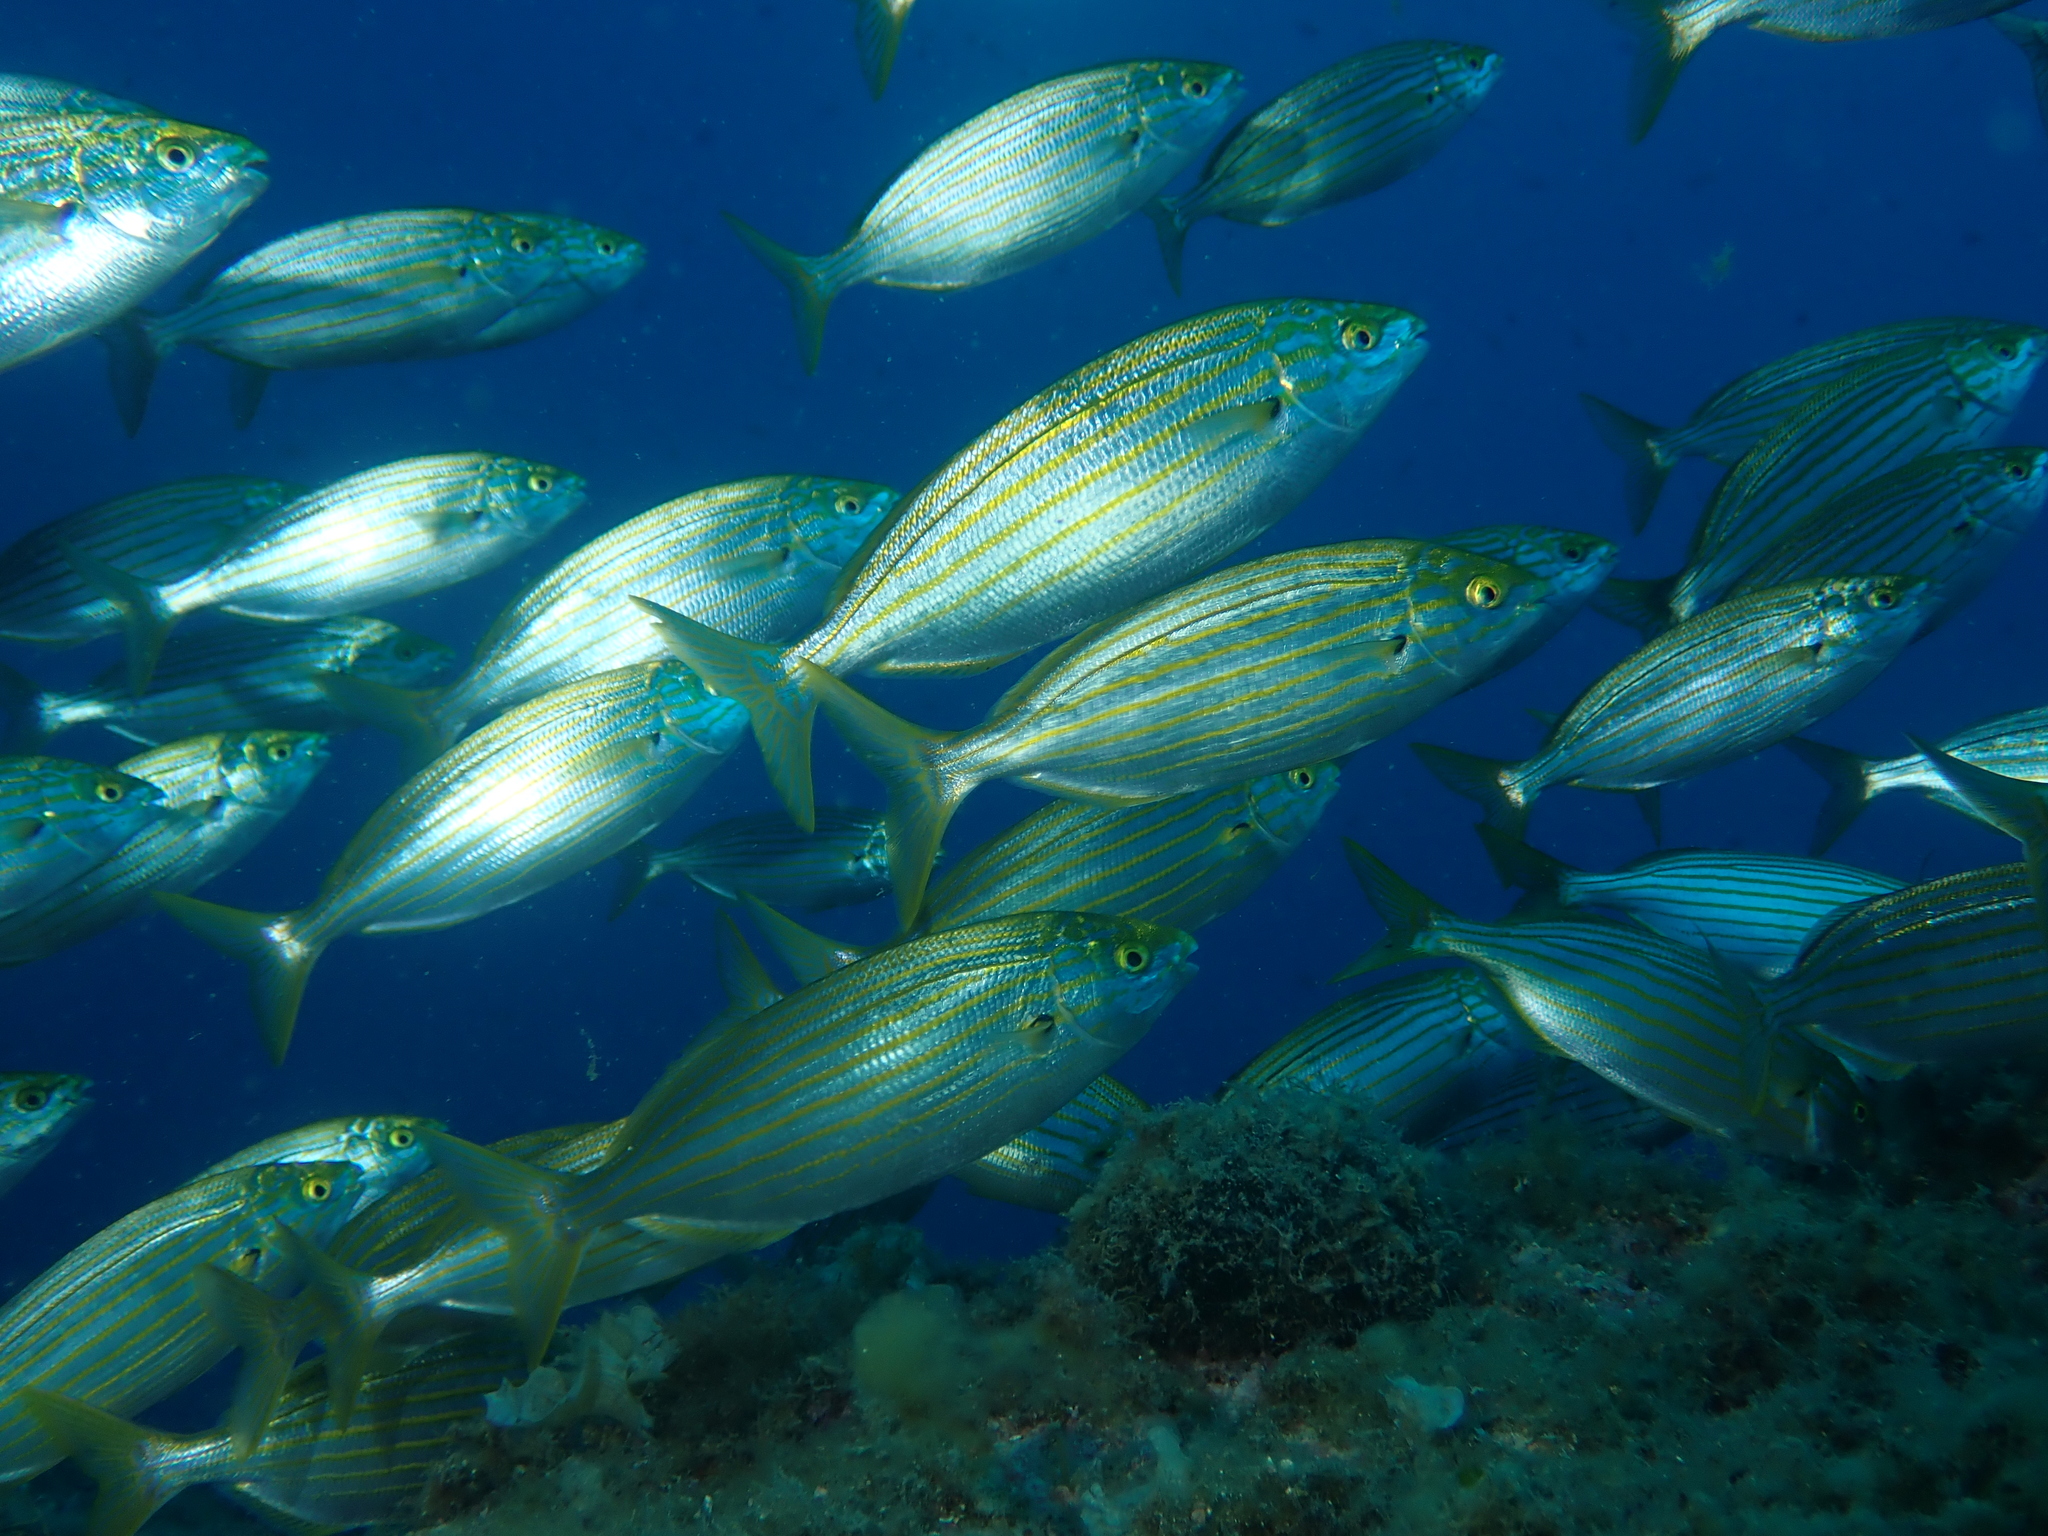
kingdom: Animalia
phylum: Chordata
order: Perciformes
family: Sparidae
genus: Sarpa
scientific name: Sarpa salpa
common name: Salema
